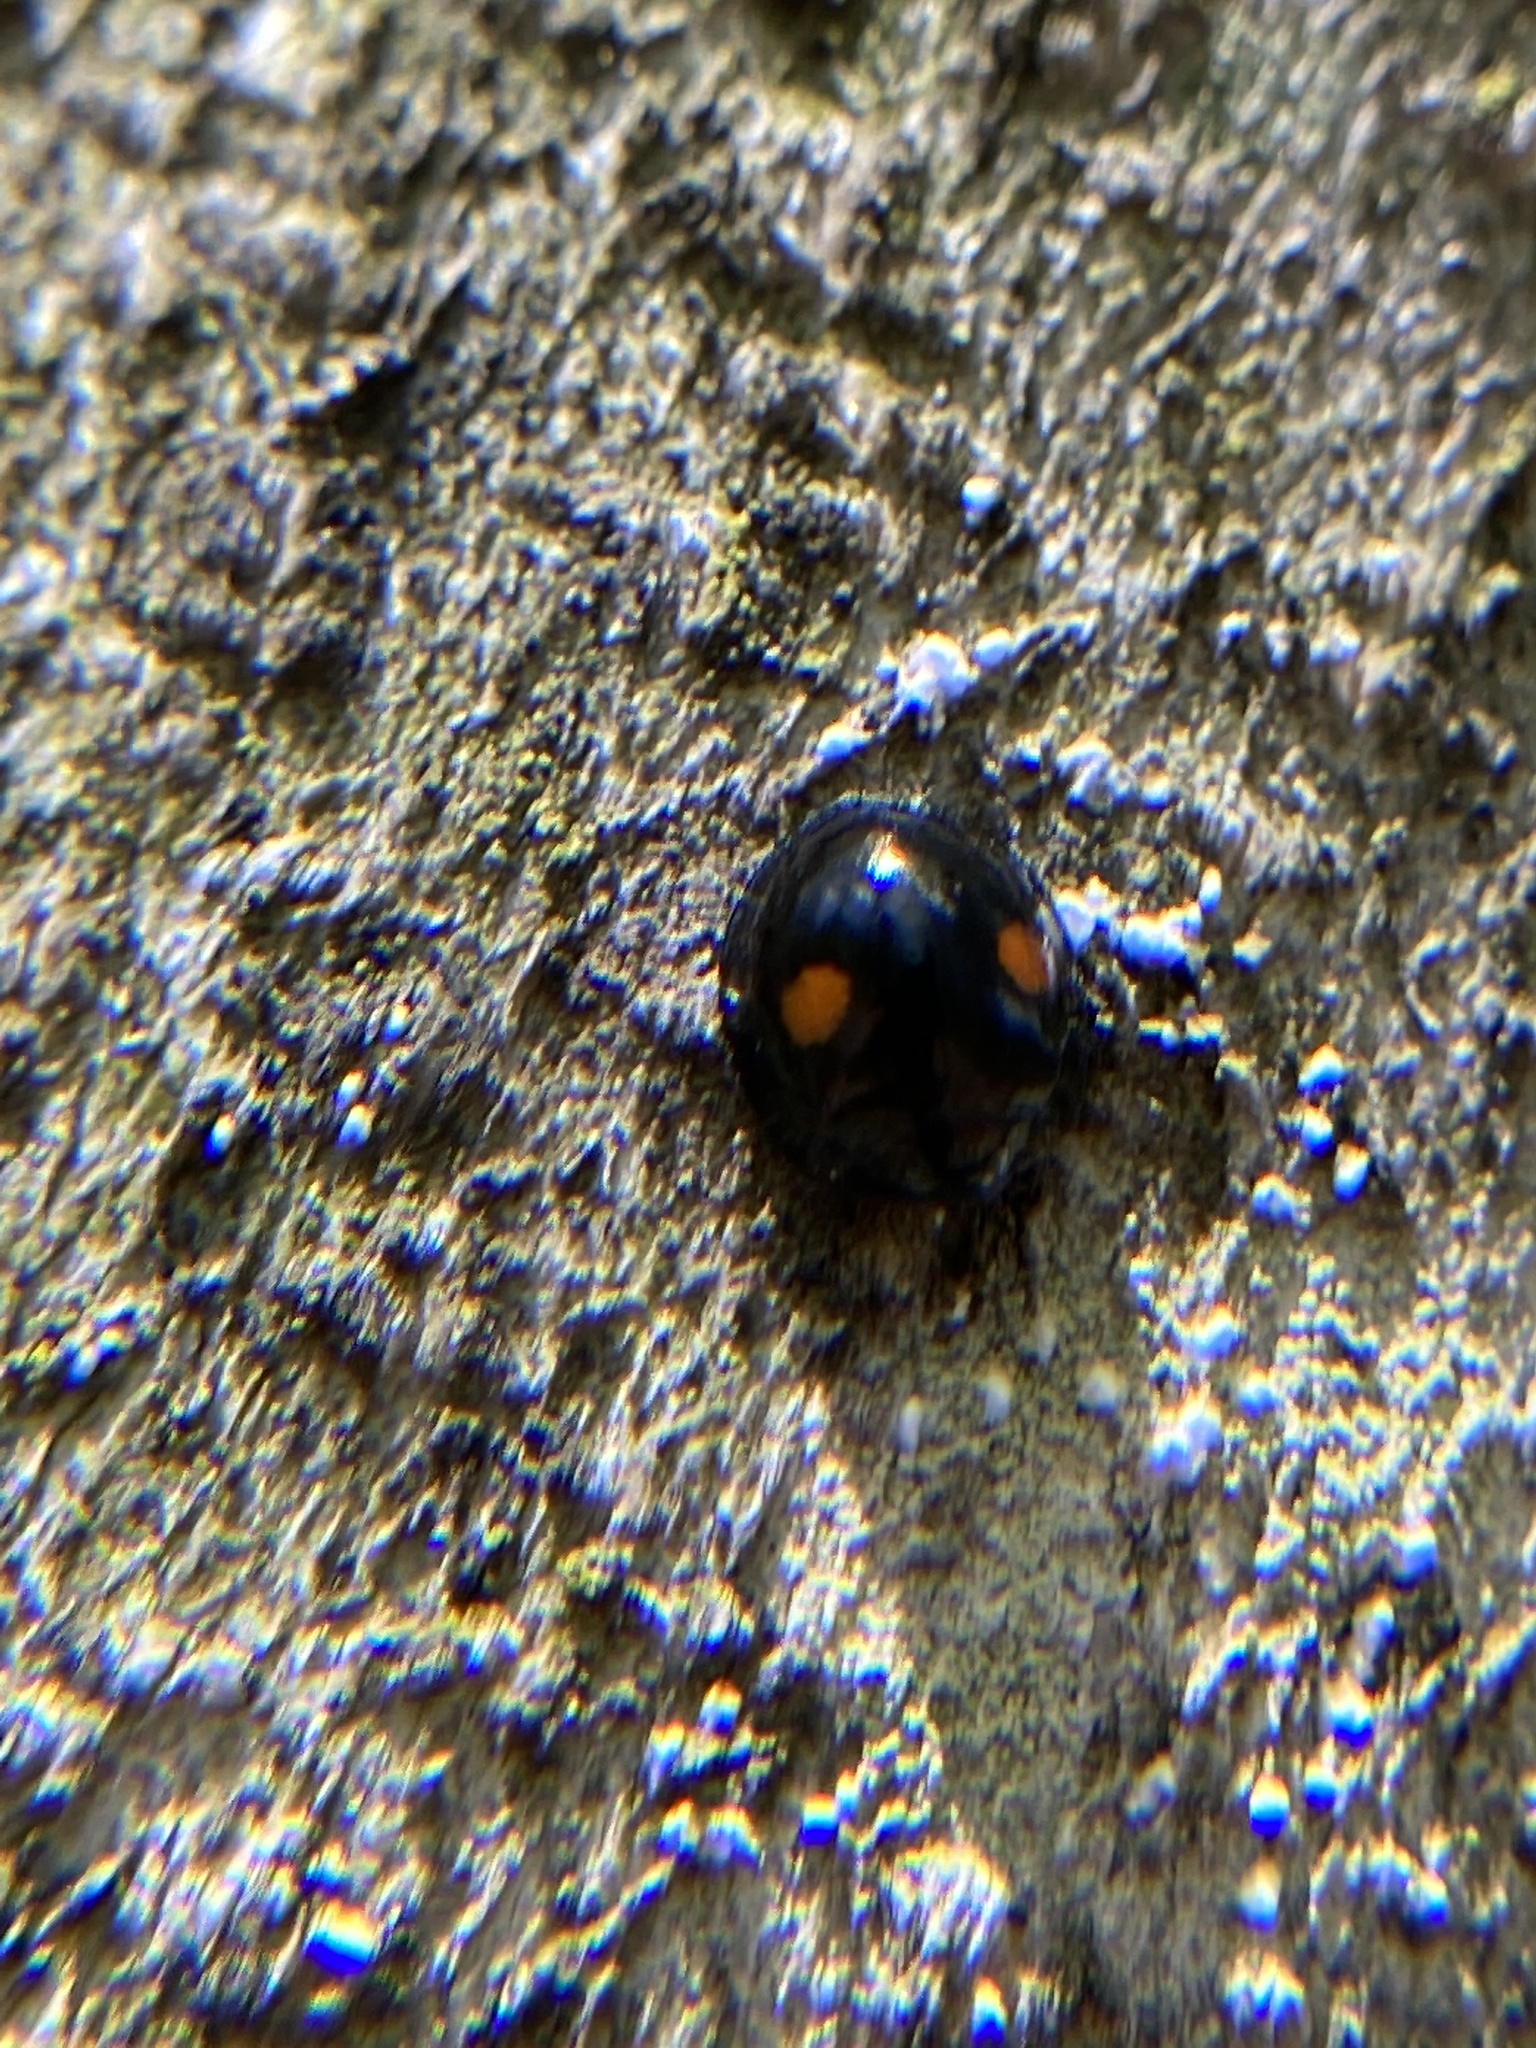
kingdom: Animalia
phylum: Arthropoda
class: Insecta
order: Coleoptera
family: Coccinellidae
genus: Chilocorus
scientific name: Chilocorus stigma
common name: Twicestabbed lady beetle
